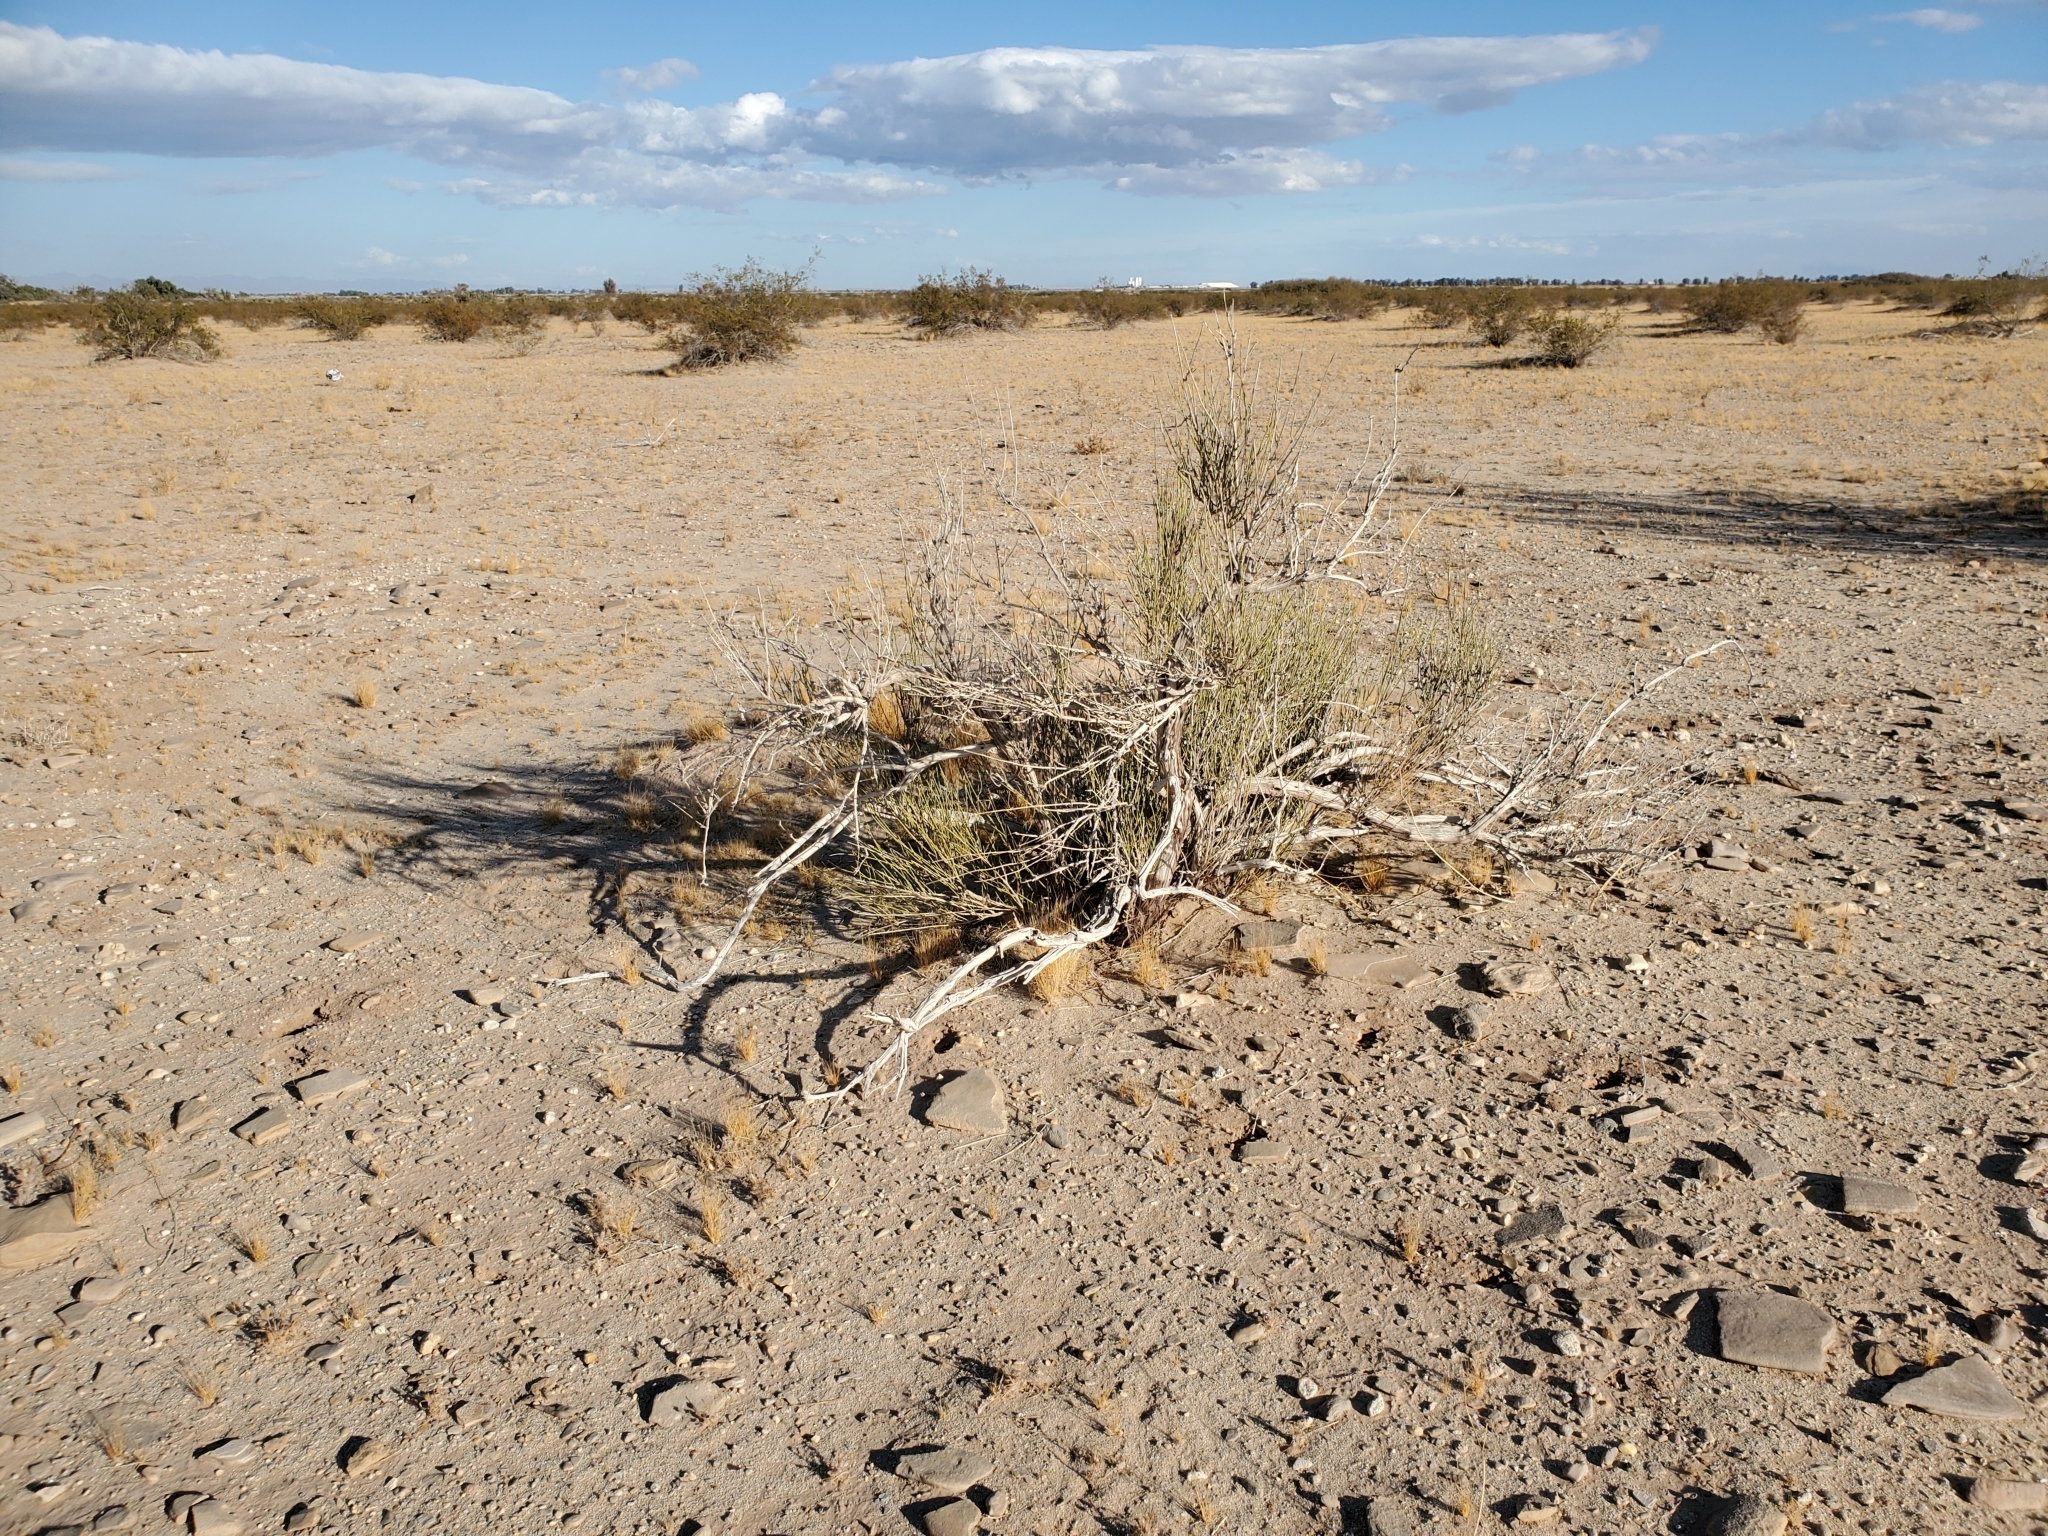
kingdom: Plantae
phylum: Tracheophyta
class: Gnetopsida
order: Ephedrales
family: Ephedraceae
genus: Ephedra
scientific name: Ephedra trifurca
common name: Mexican-tea
